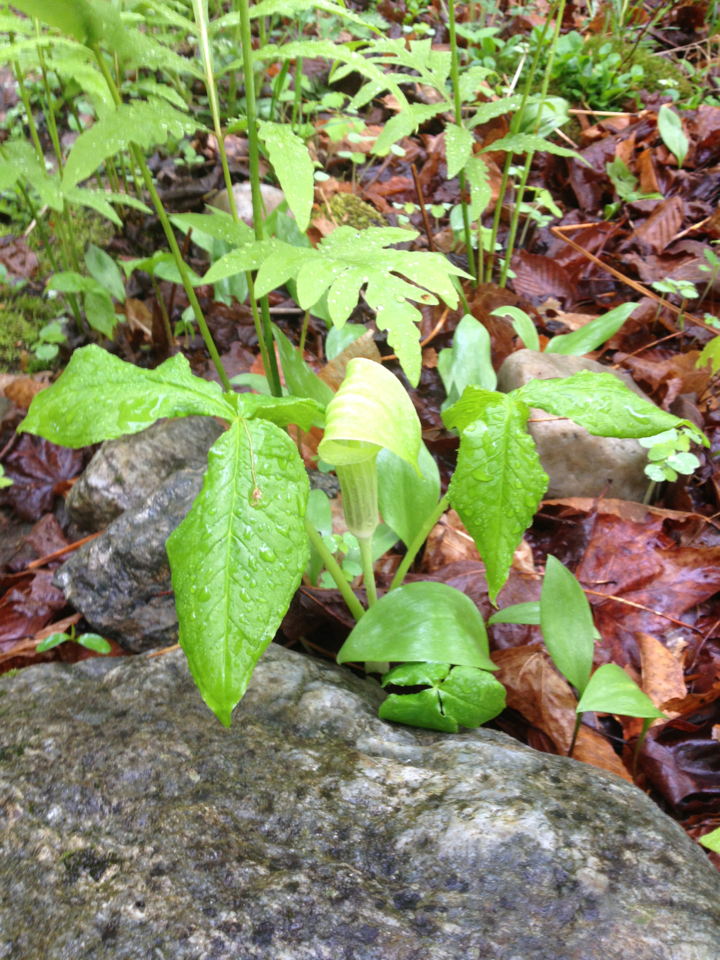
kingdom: Plantae
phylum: Tracheophyta
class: Liliopsida
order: Alismatales
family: Araceae
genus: Arisaema
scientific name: Arisaema triphyllum
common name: Jack-in-the-pulpit
